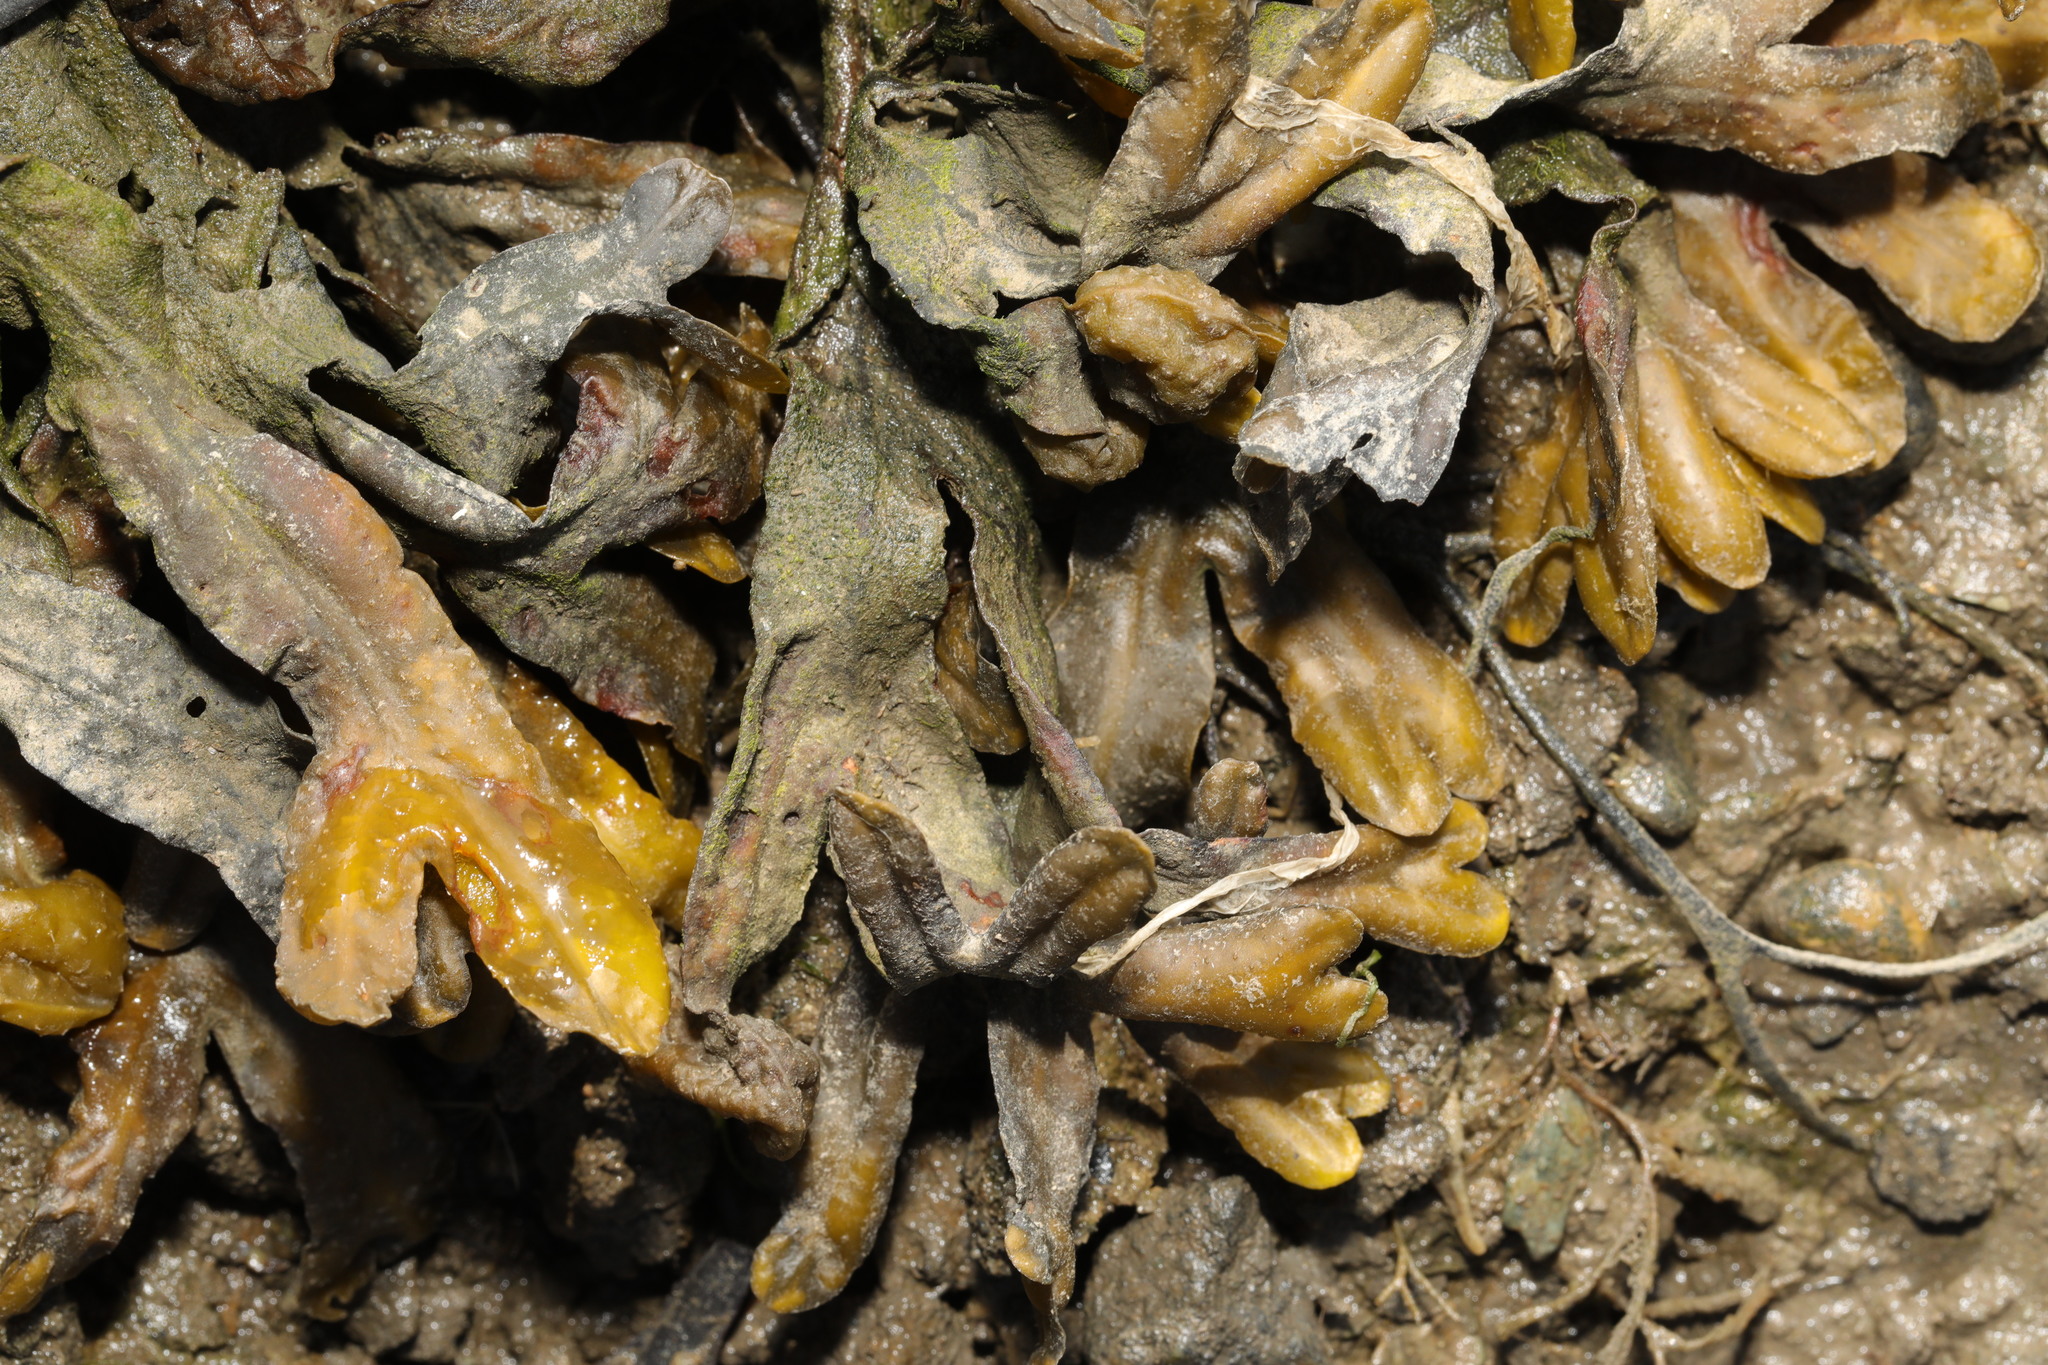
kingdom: Chromista
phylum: Ochrophyta
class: Phaeophyceae
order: Fucales
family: Fucaceae
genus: Fucus
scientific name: Fucus vesiculosus
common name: Bladder wrack
